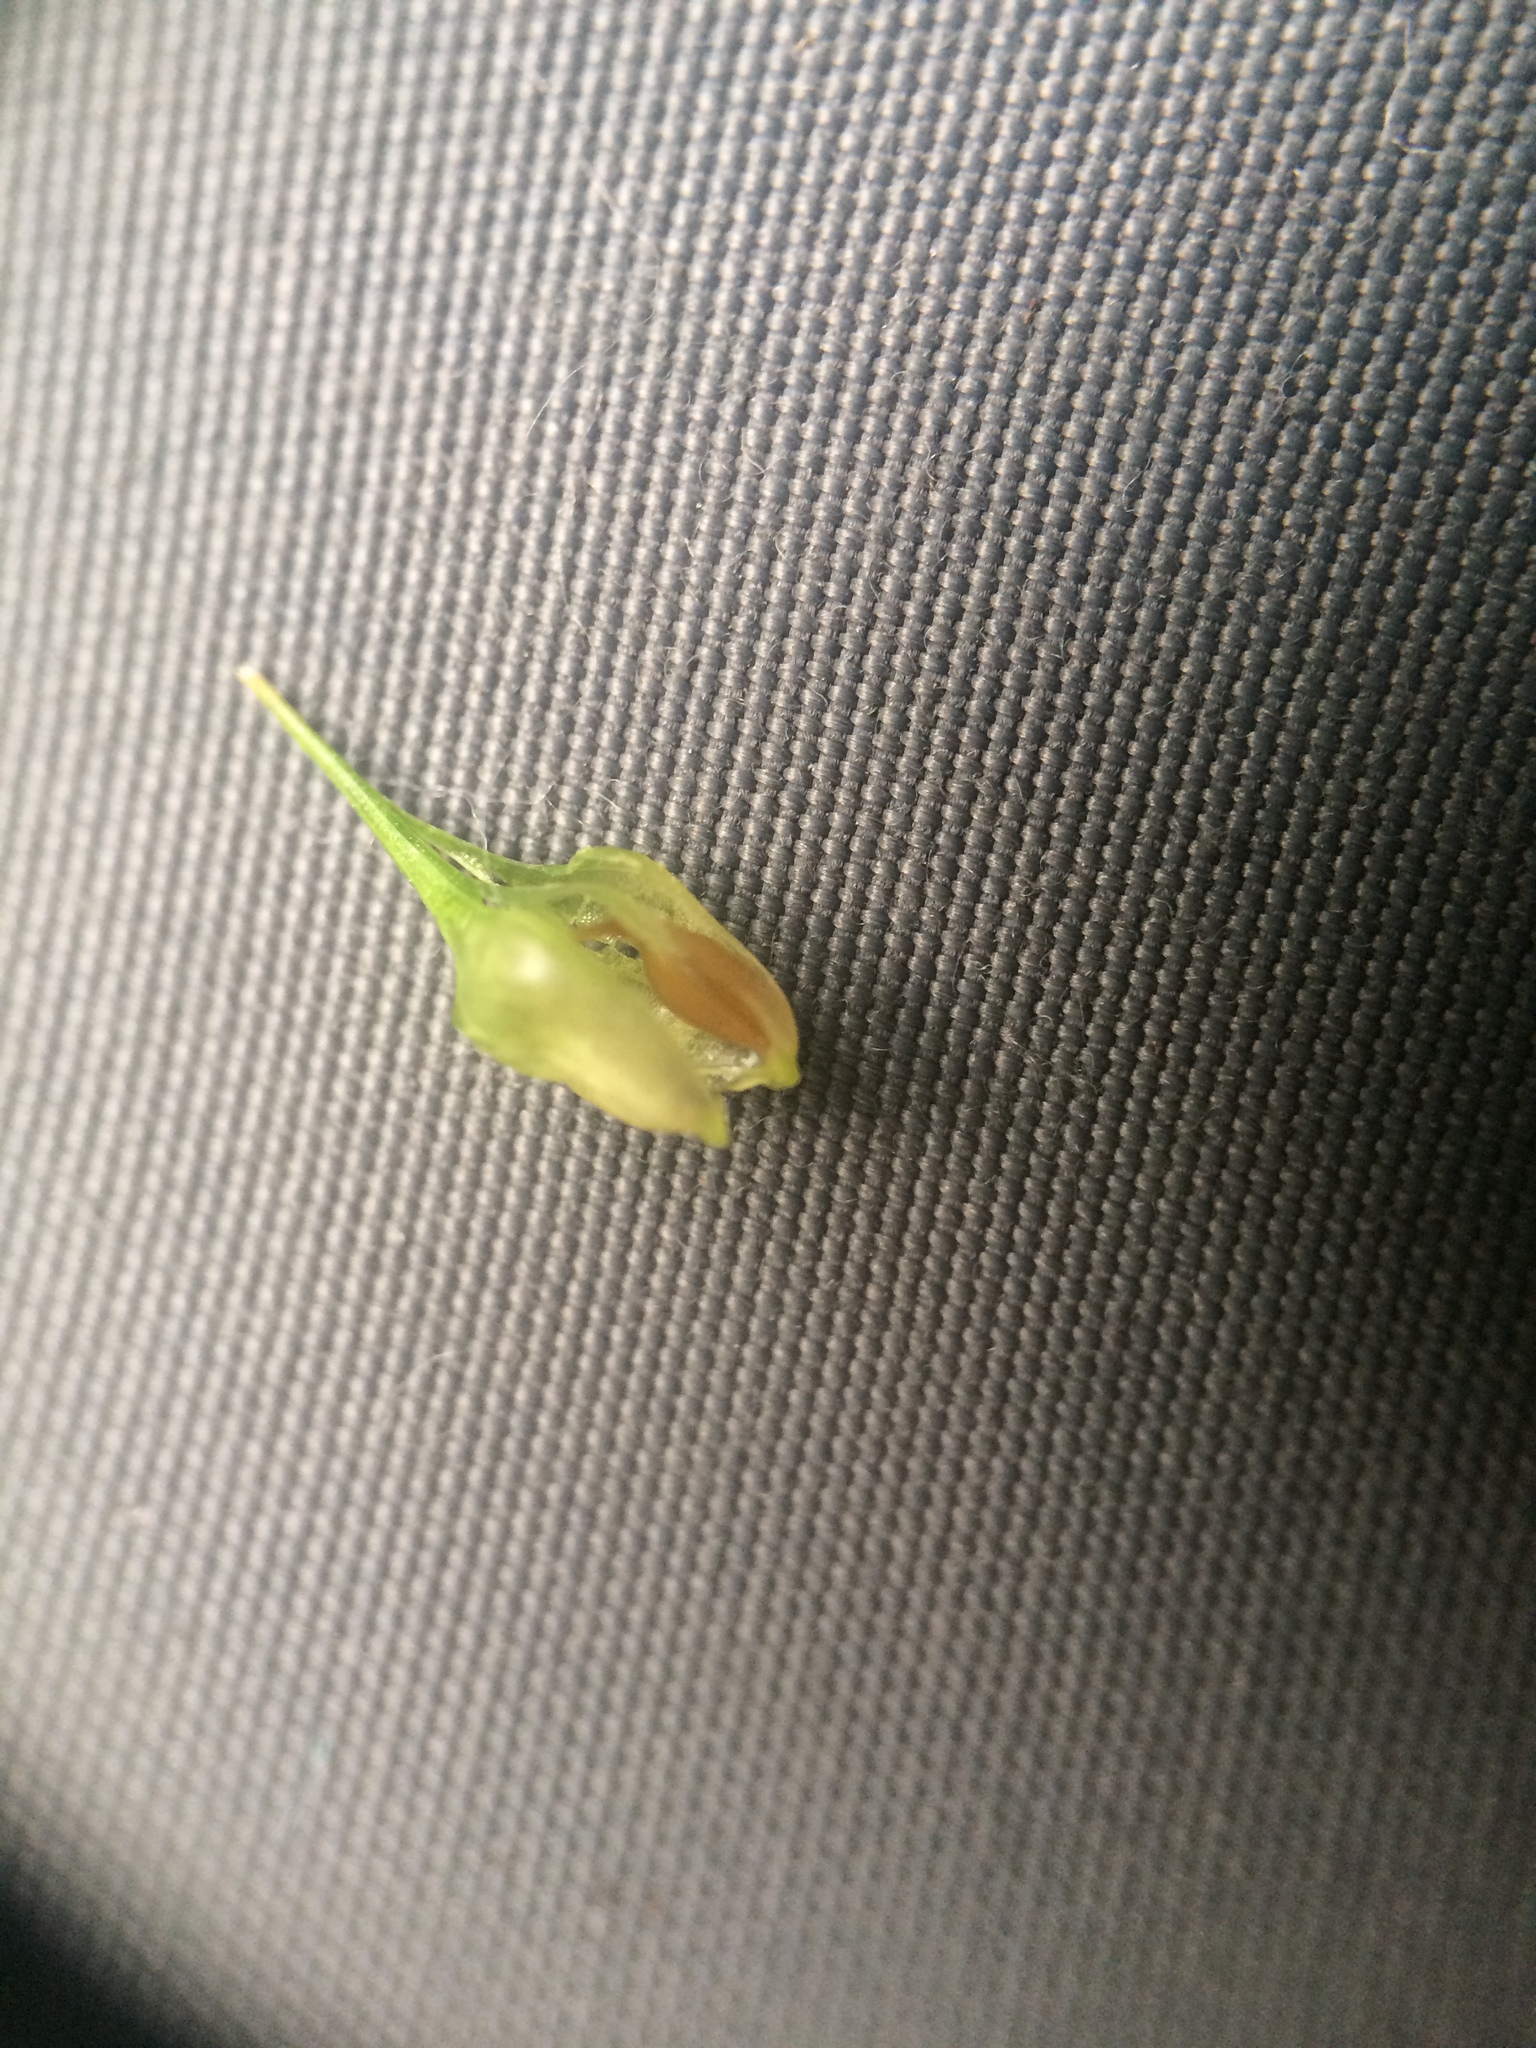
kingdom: Plantae
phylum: Tracheophyta
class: Liliopsida
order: Poales
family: Cyperaceae
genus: Carex
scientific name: Carex lurida
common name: Sallow sedge
